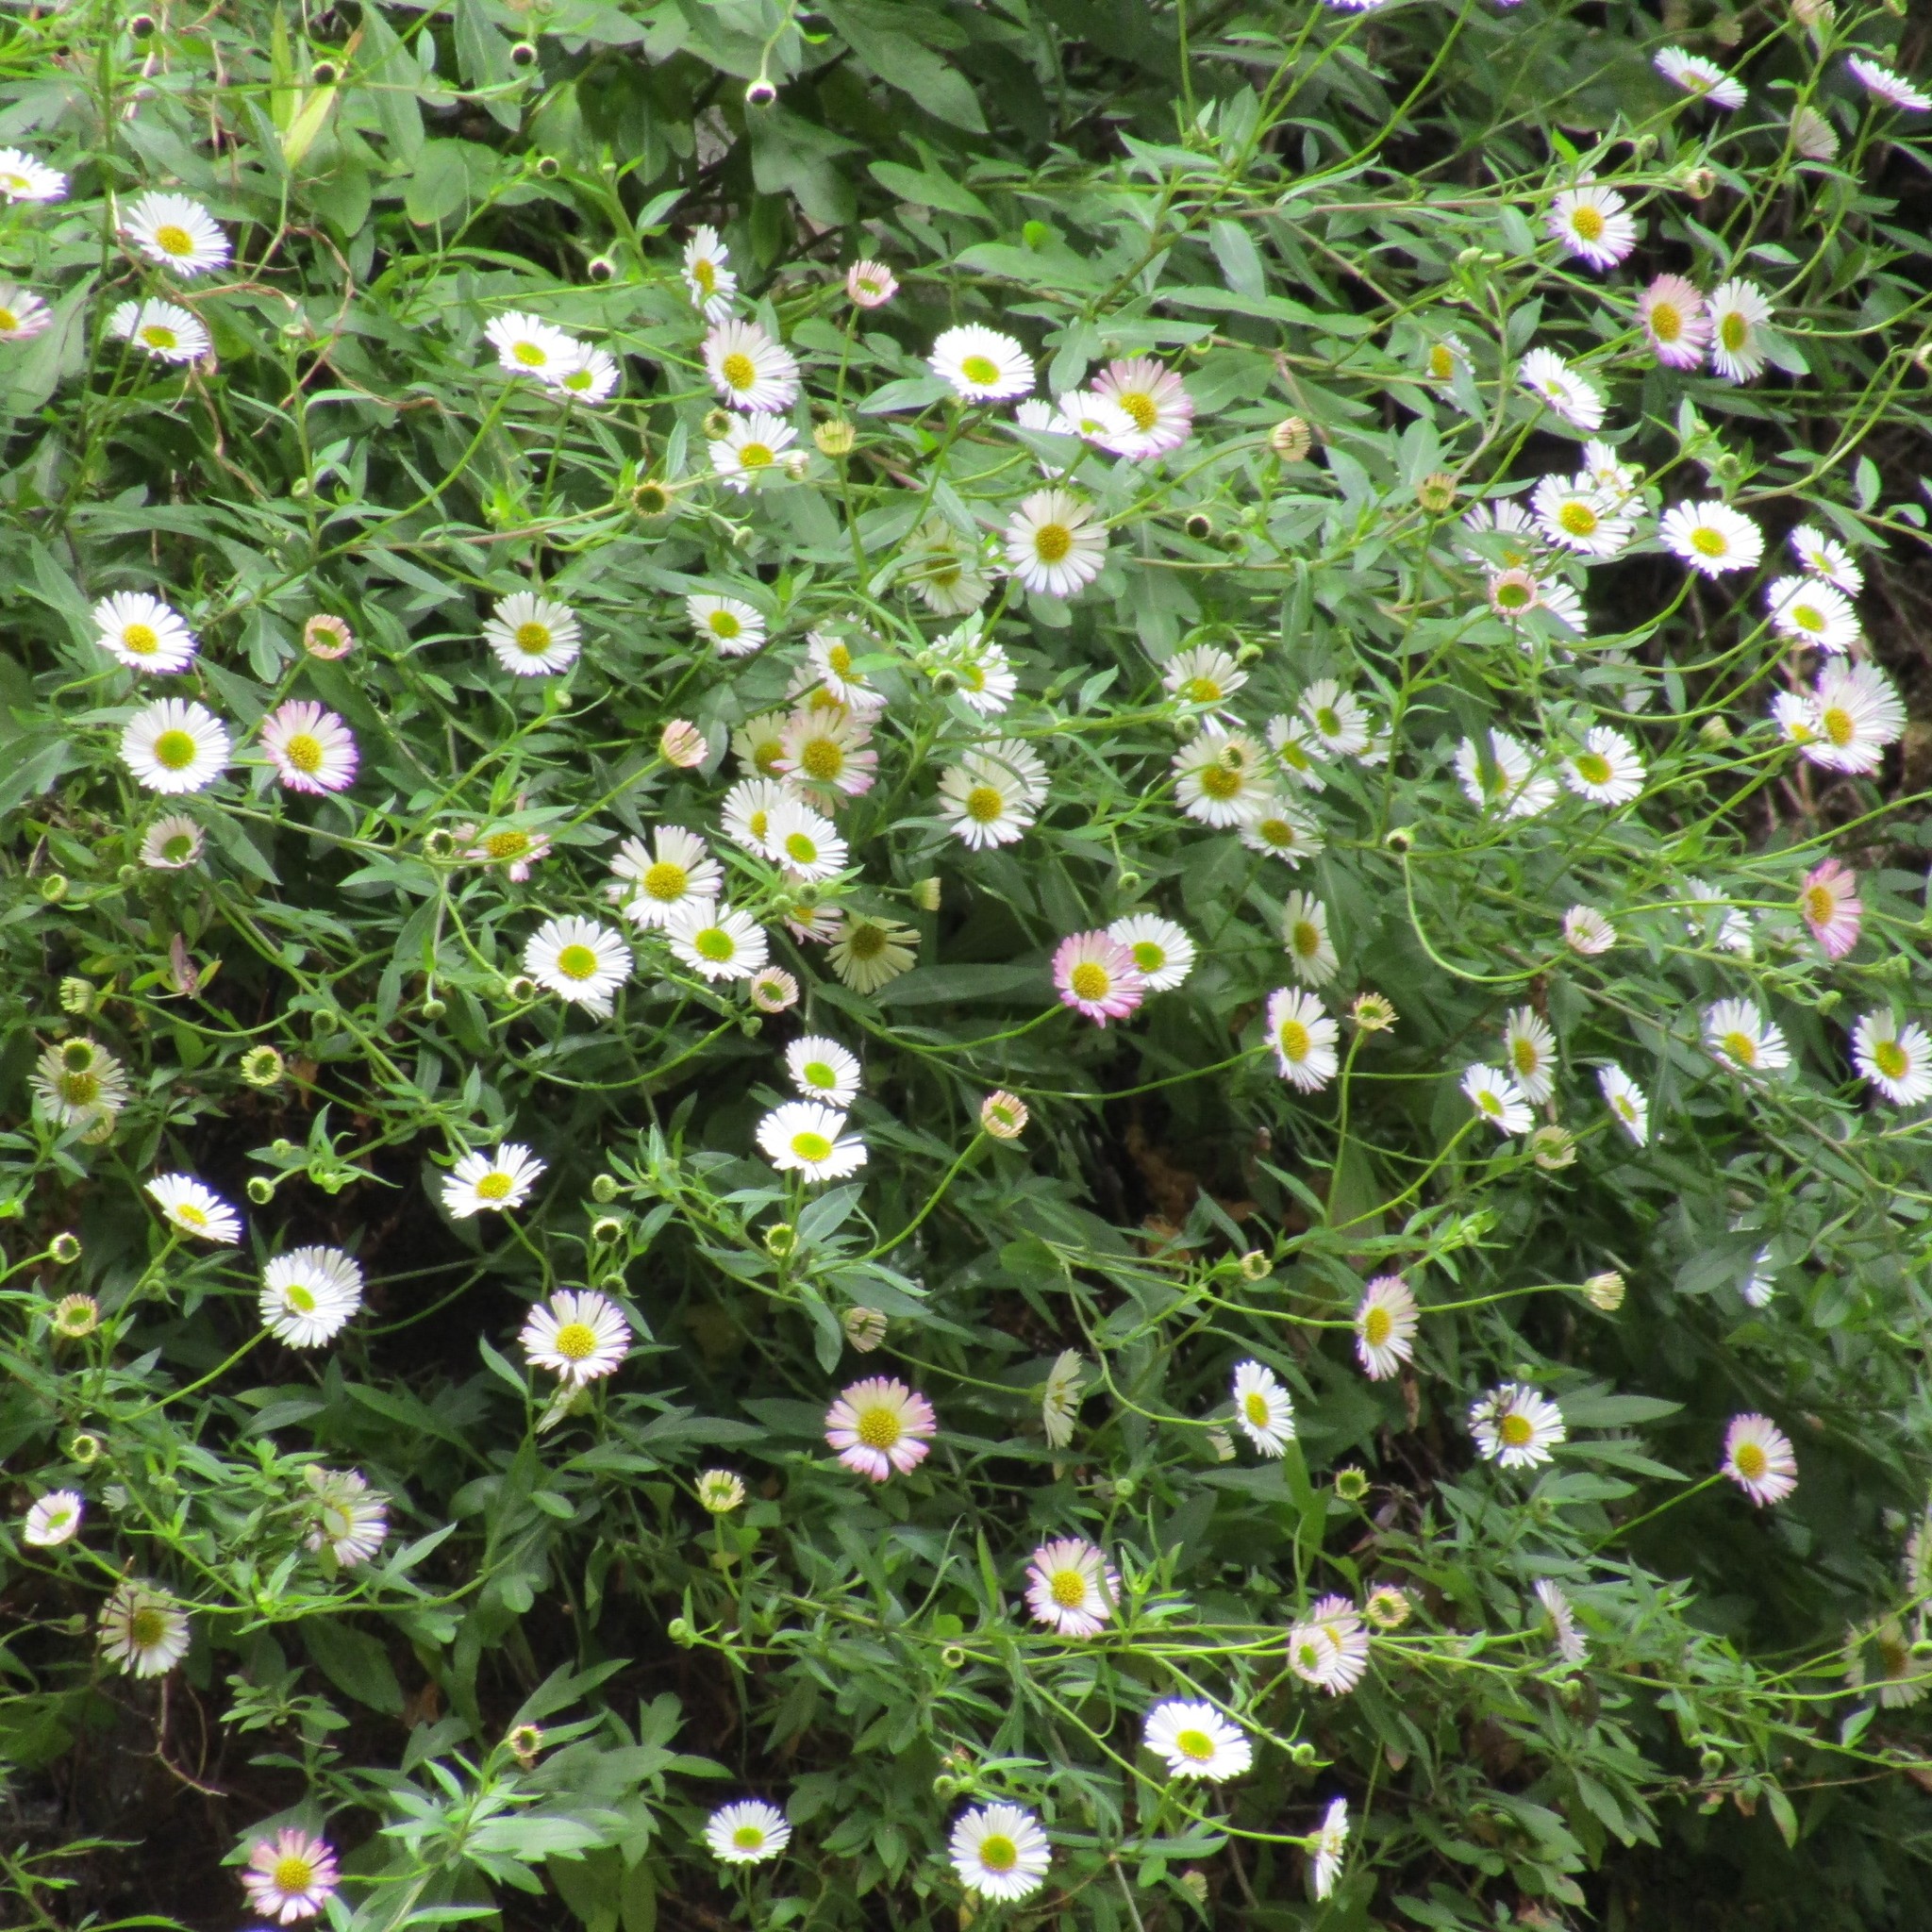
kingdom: Plantae
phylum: Tracheophyta
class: Magnoliopsida
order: Asterales
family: Asteraceae
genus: Erigeron
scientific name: Erigeron karvinskianus
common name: Mexican fleabane
